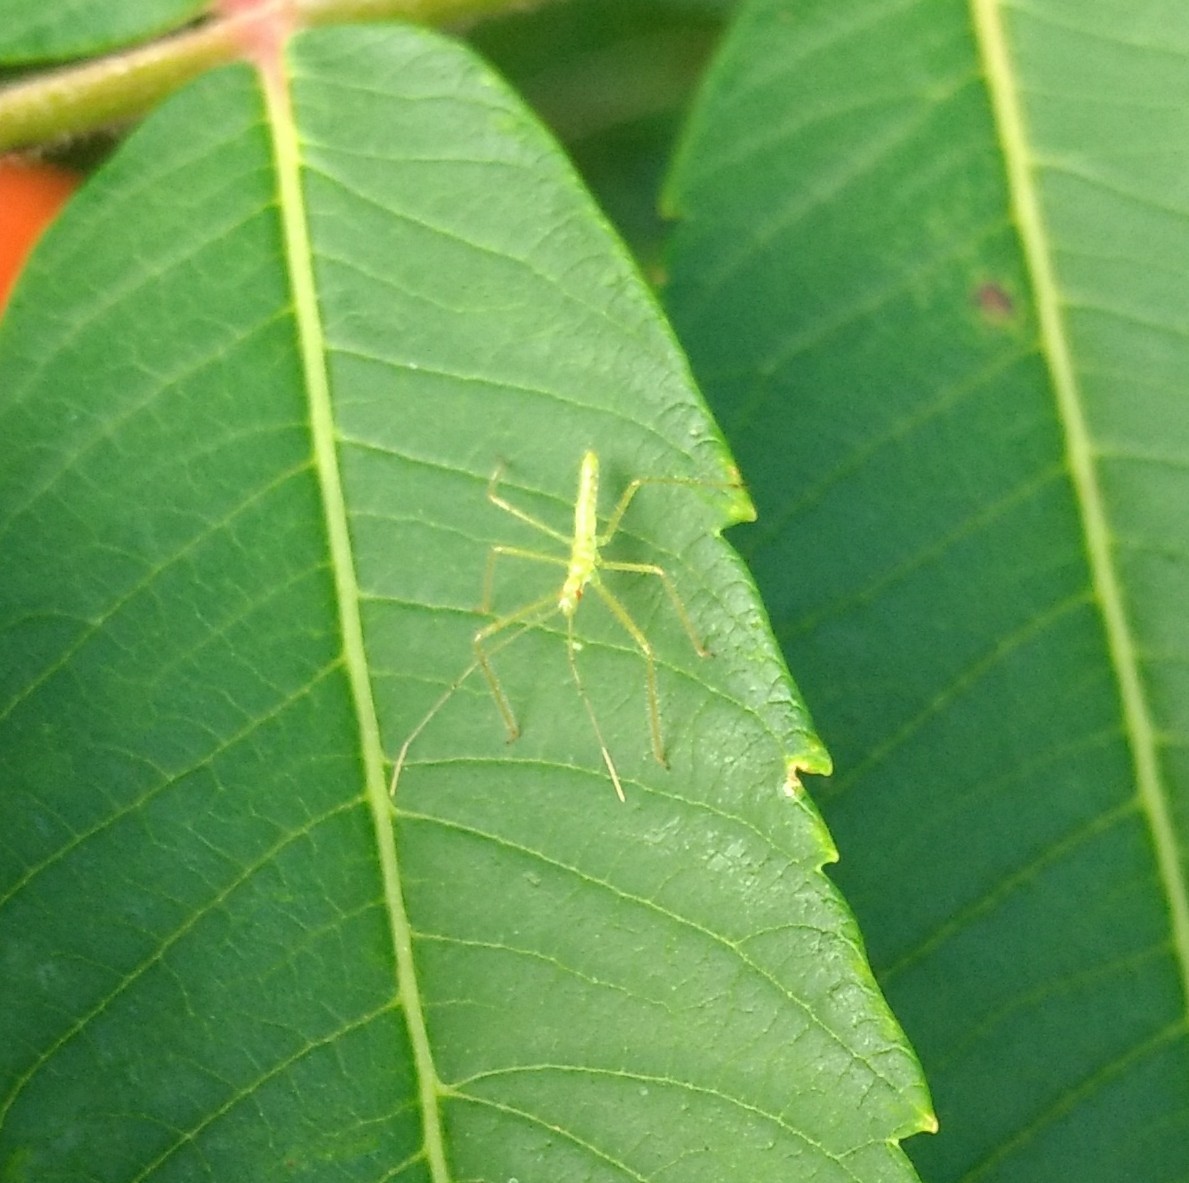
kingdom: Animalia
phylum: Arthropoda
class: Insecta
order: Hemiptera
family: Reduviidae
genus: Zelus
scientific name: Zelus luridus
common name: Pale green assassin bug
